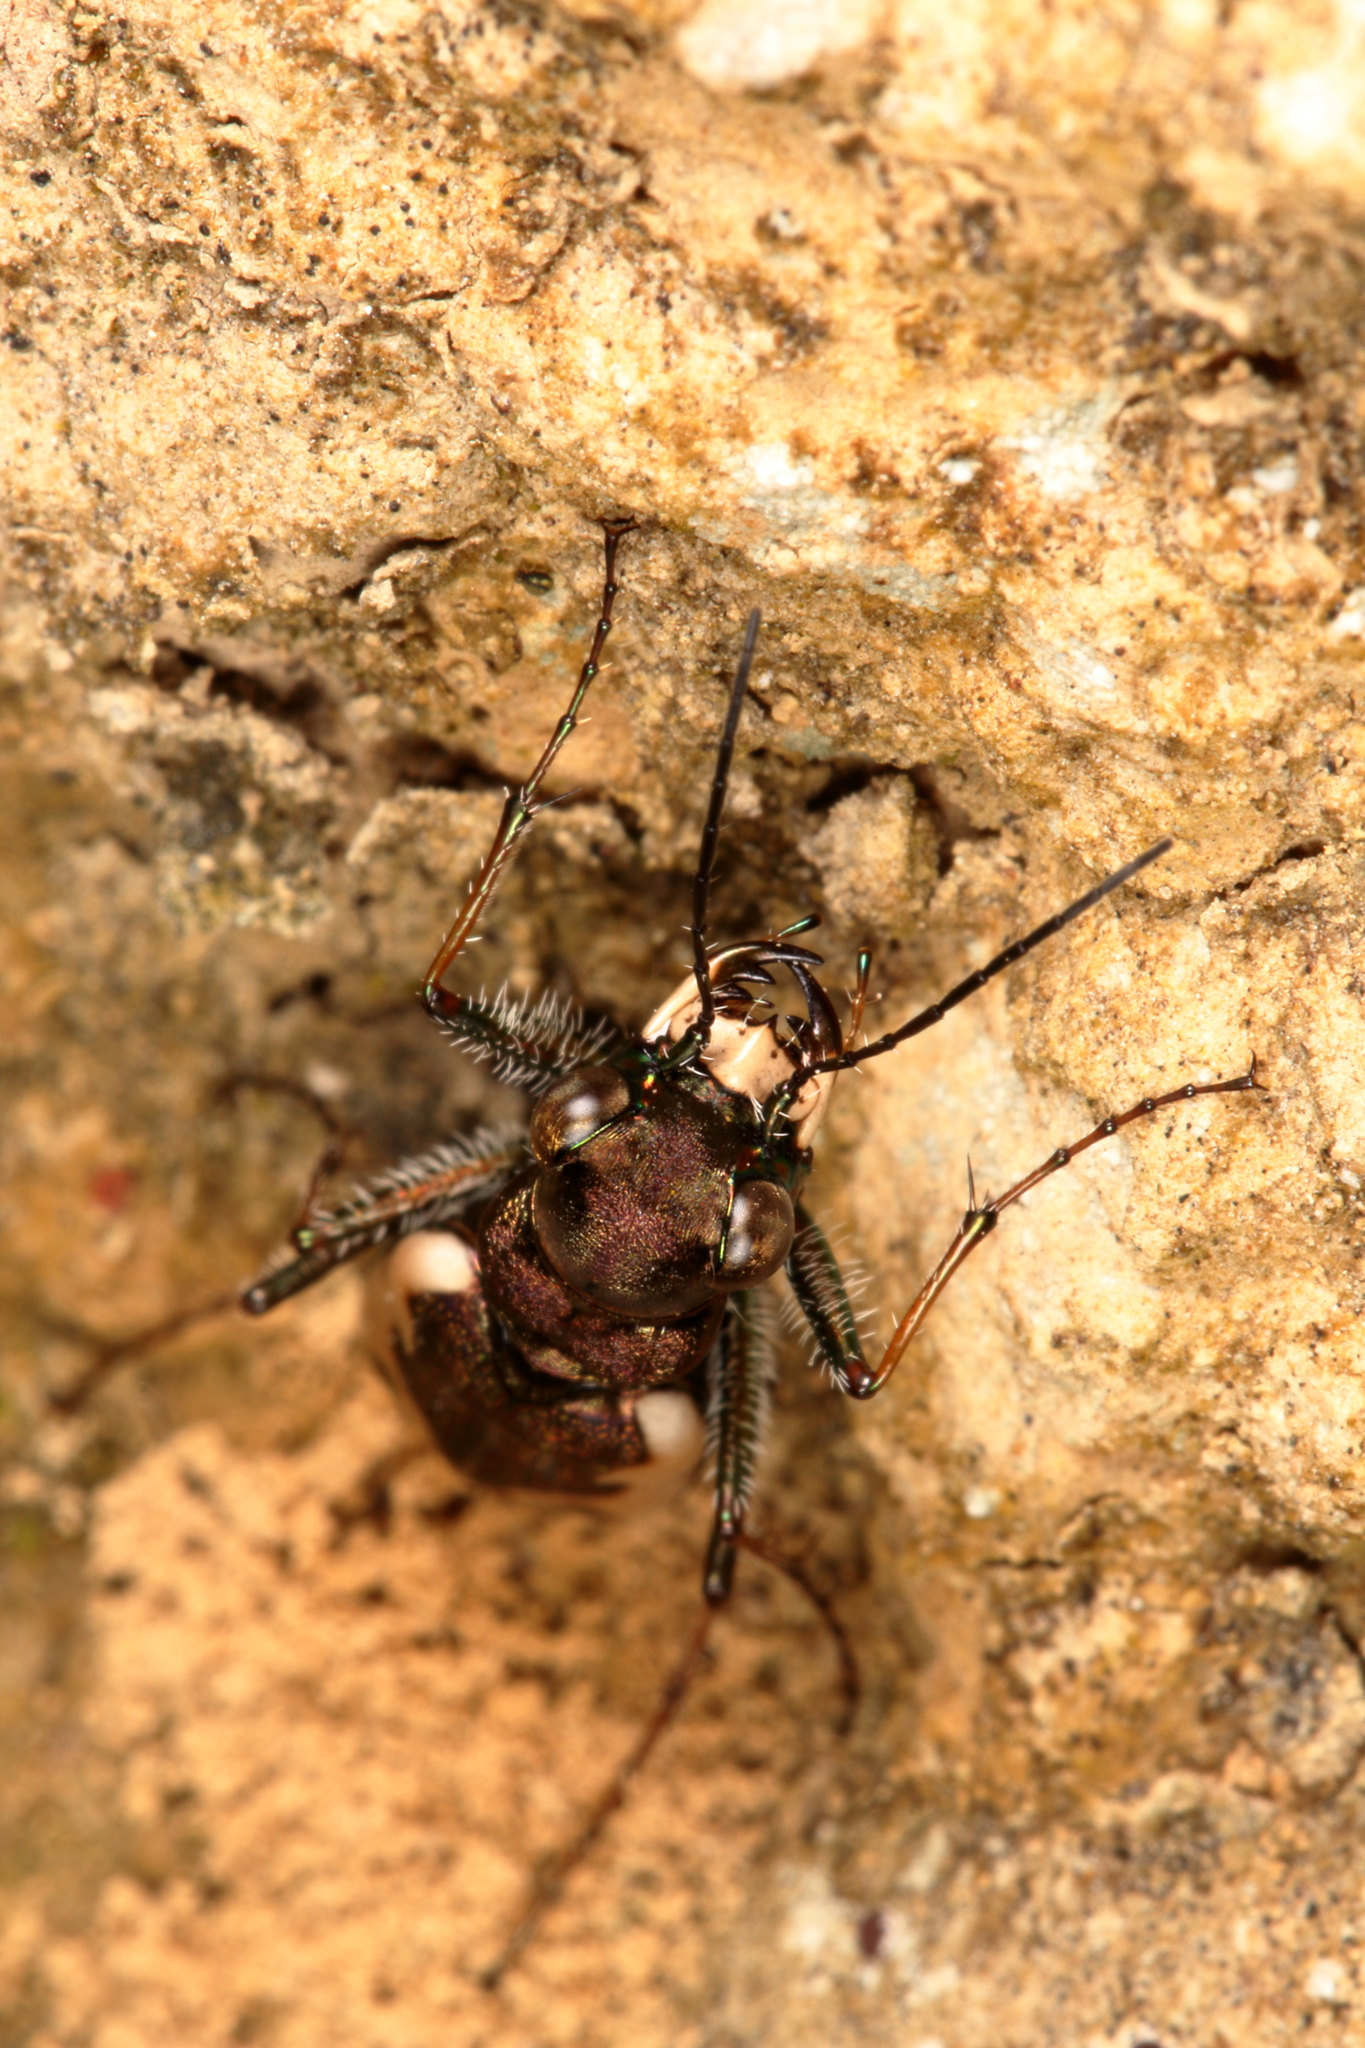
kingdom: Animalia
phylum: Arthropoda
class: Insecta
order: Coleoptera
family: Carabidae
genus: Neocicindela
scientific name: Neocicindela latecincta
